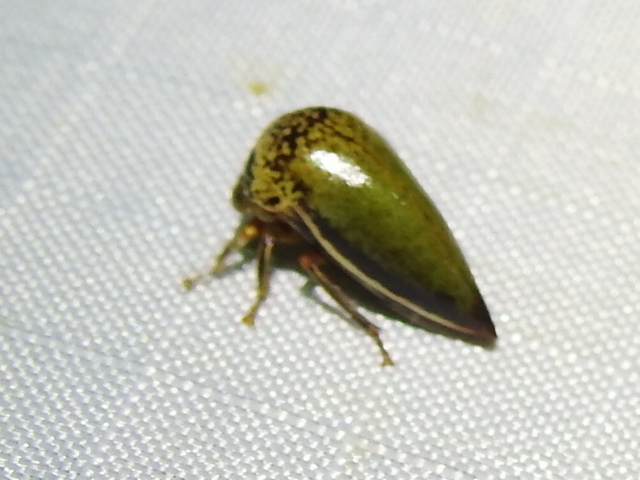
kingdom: Animalia
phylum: Arthropoda
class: Insecta
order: Hemiptera
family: Membracidae
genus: Stictopelta
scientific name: Stictopelta marmorata
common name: Treehopper
